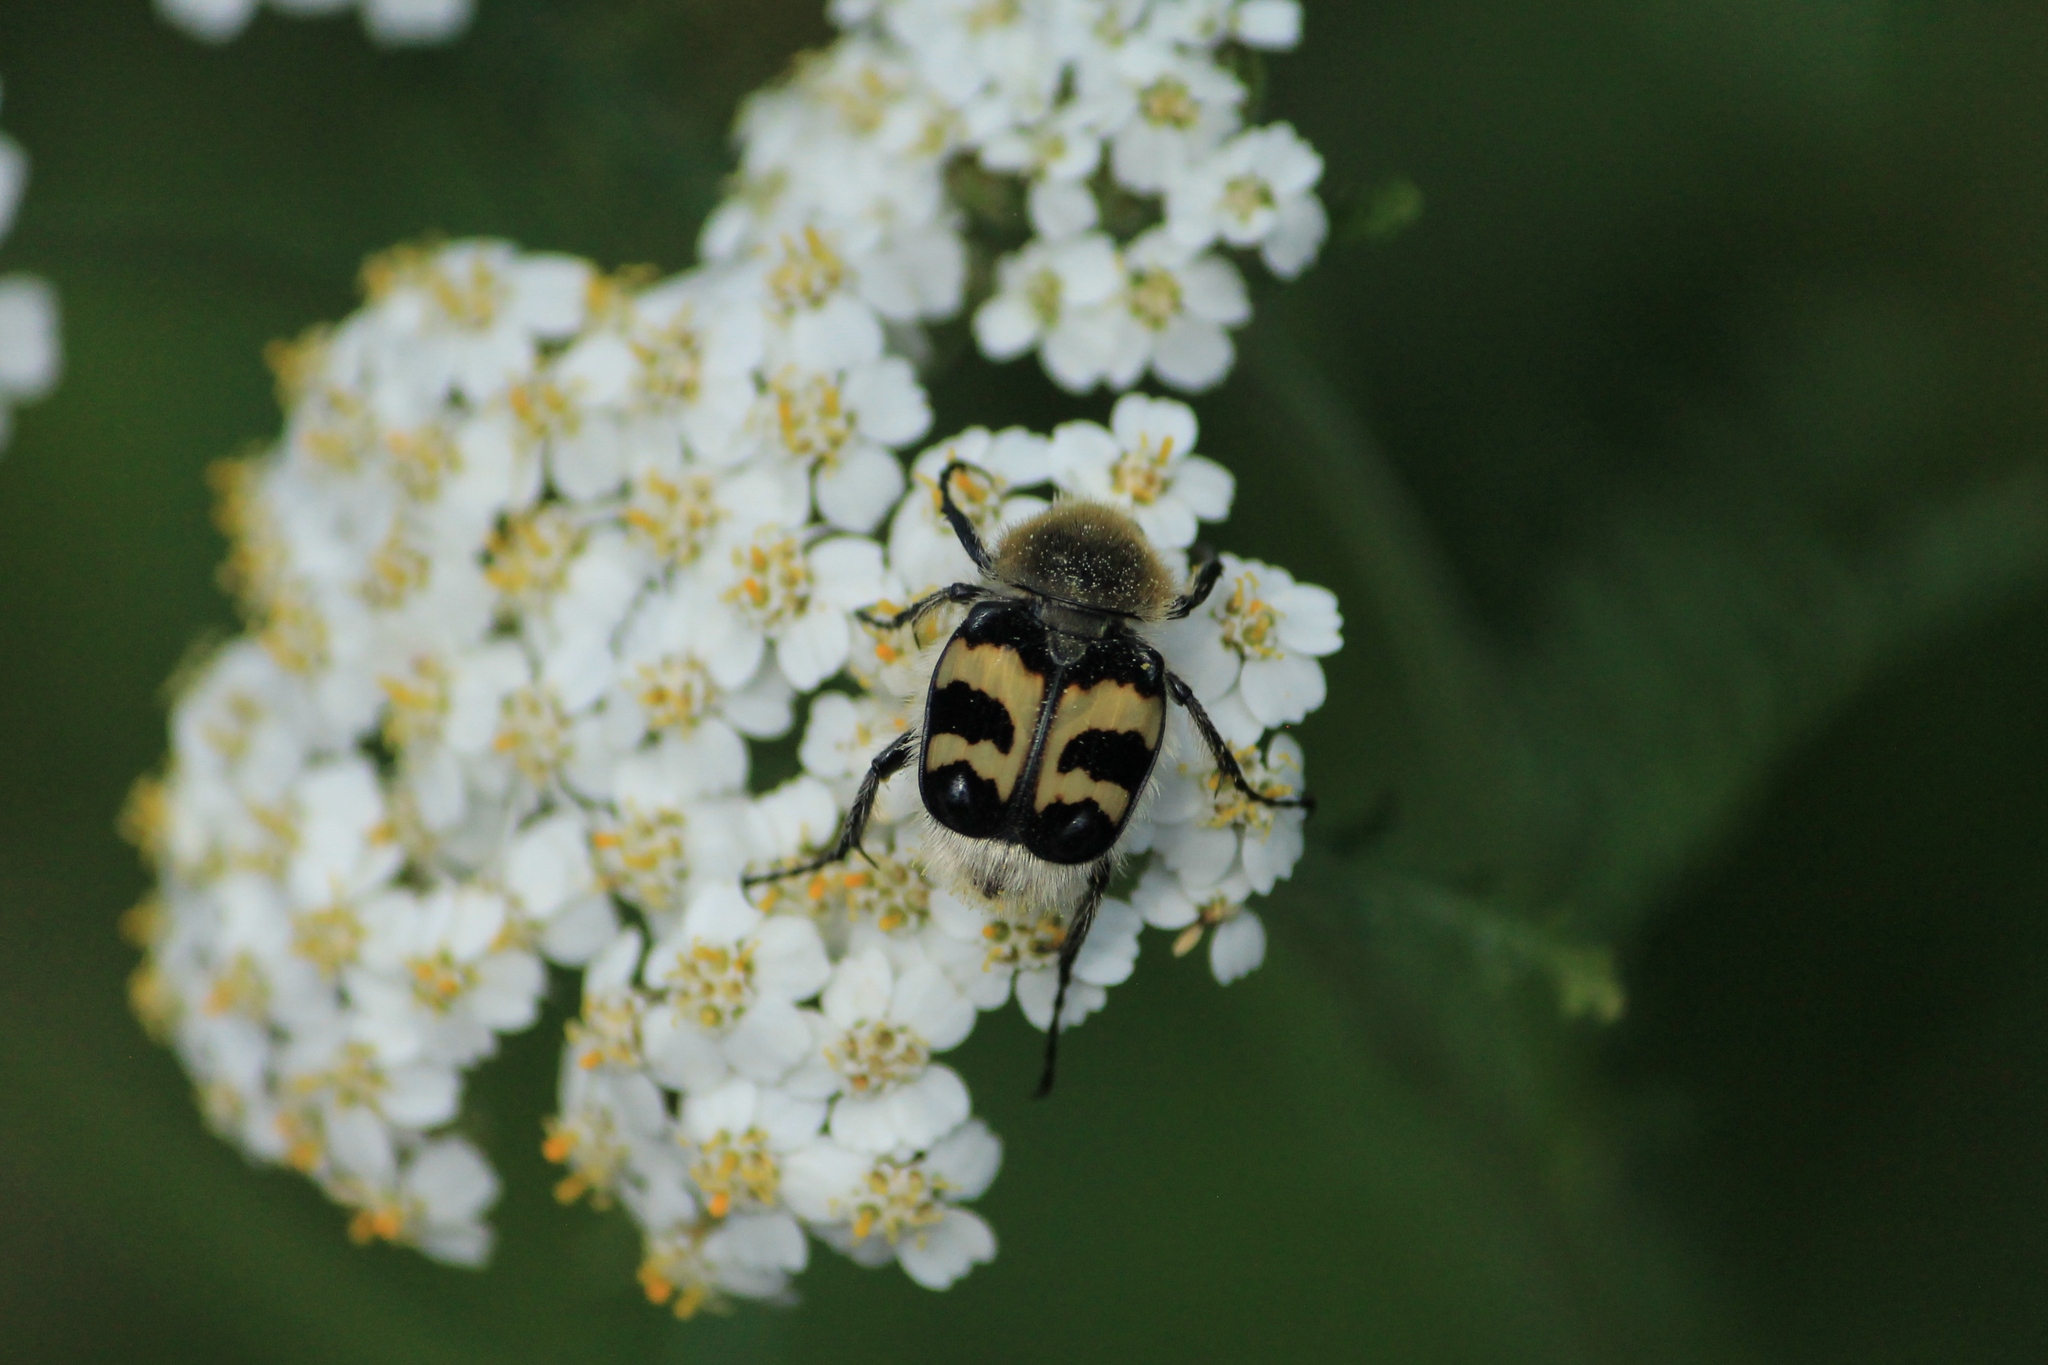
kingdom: Animalia
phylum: Arthropoda
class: Insecta
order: Coleoptera
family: Scarabaeidae
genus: Trichius
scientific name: Trichius fasciatus
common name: Bee beetle
